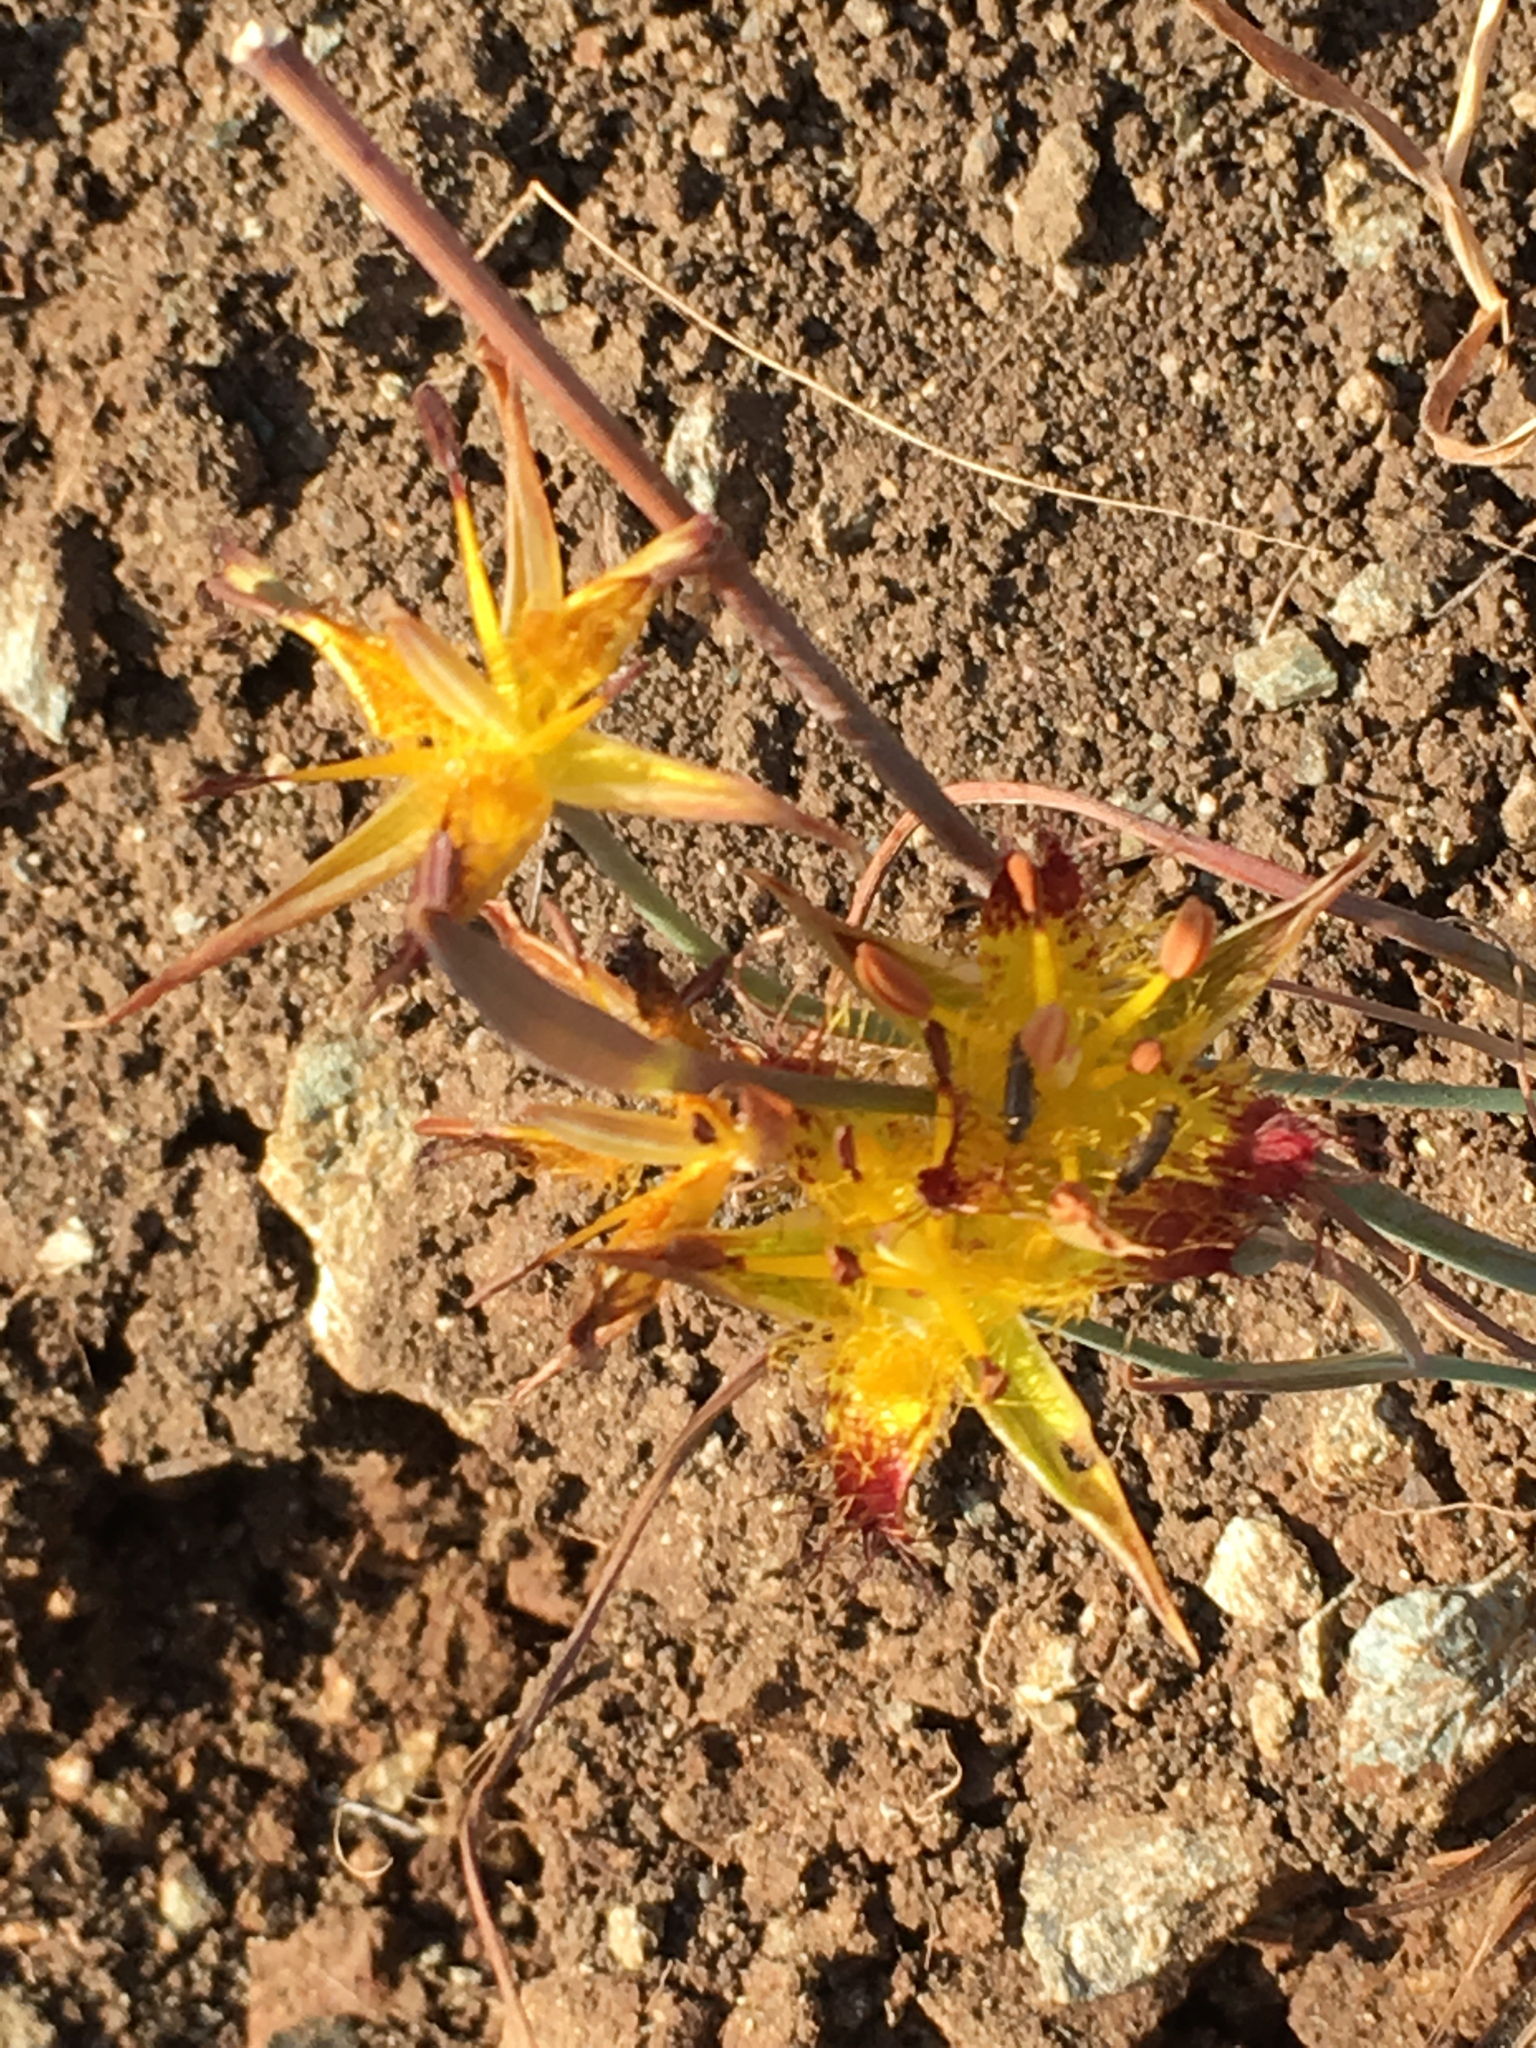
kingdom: Plantae
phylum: Tracheophyta
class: Liliopsida
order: Liliales
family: Liliaceae
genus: Calochortus
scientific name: Calochortus obispoensis
